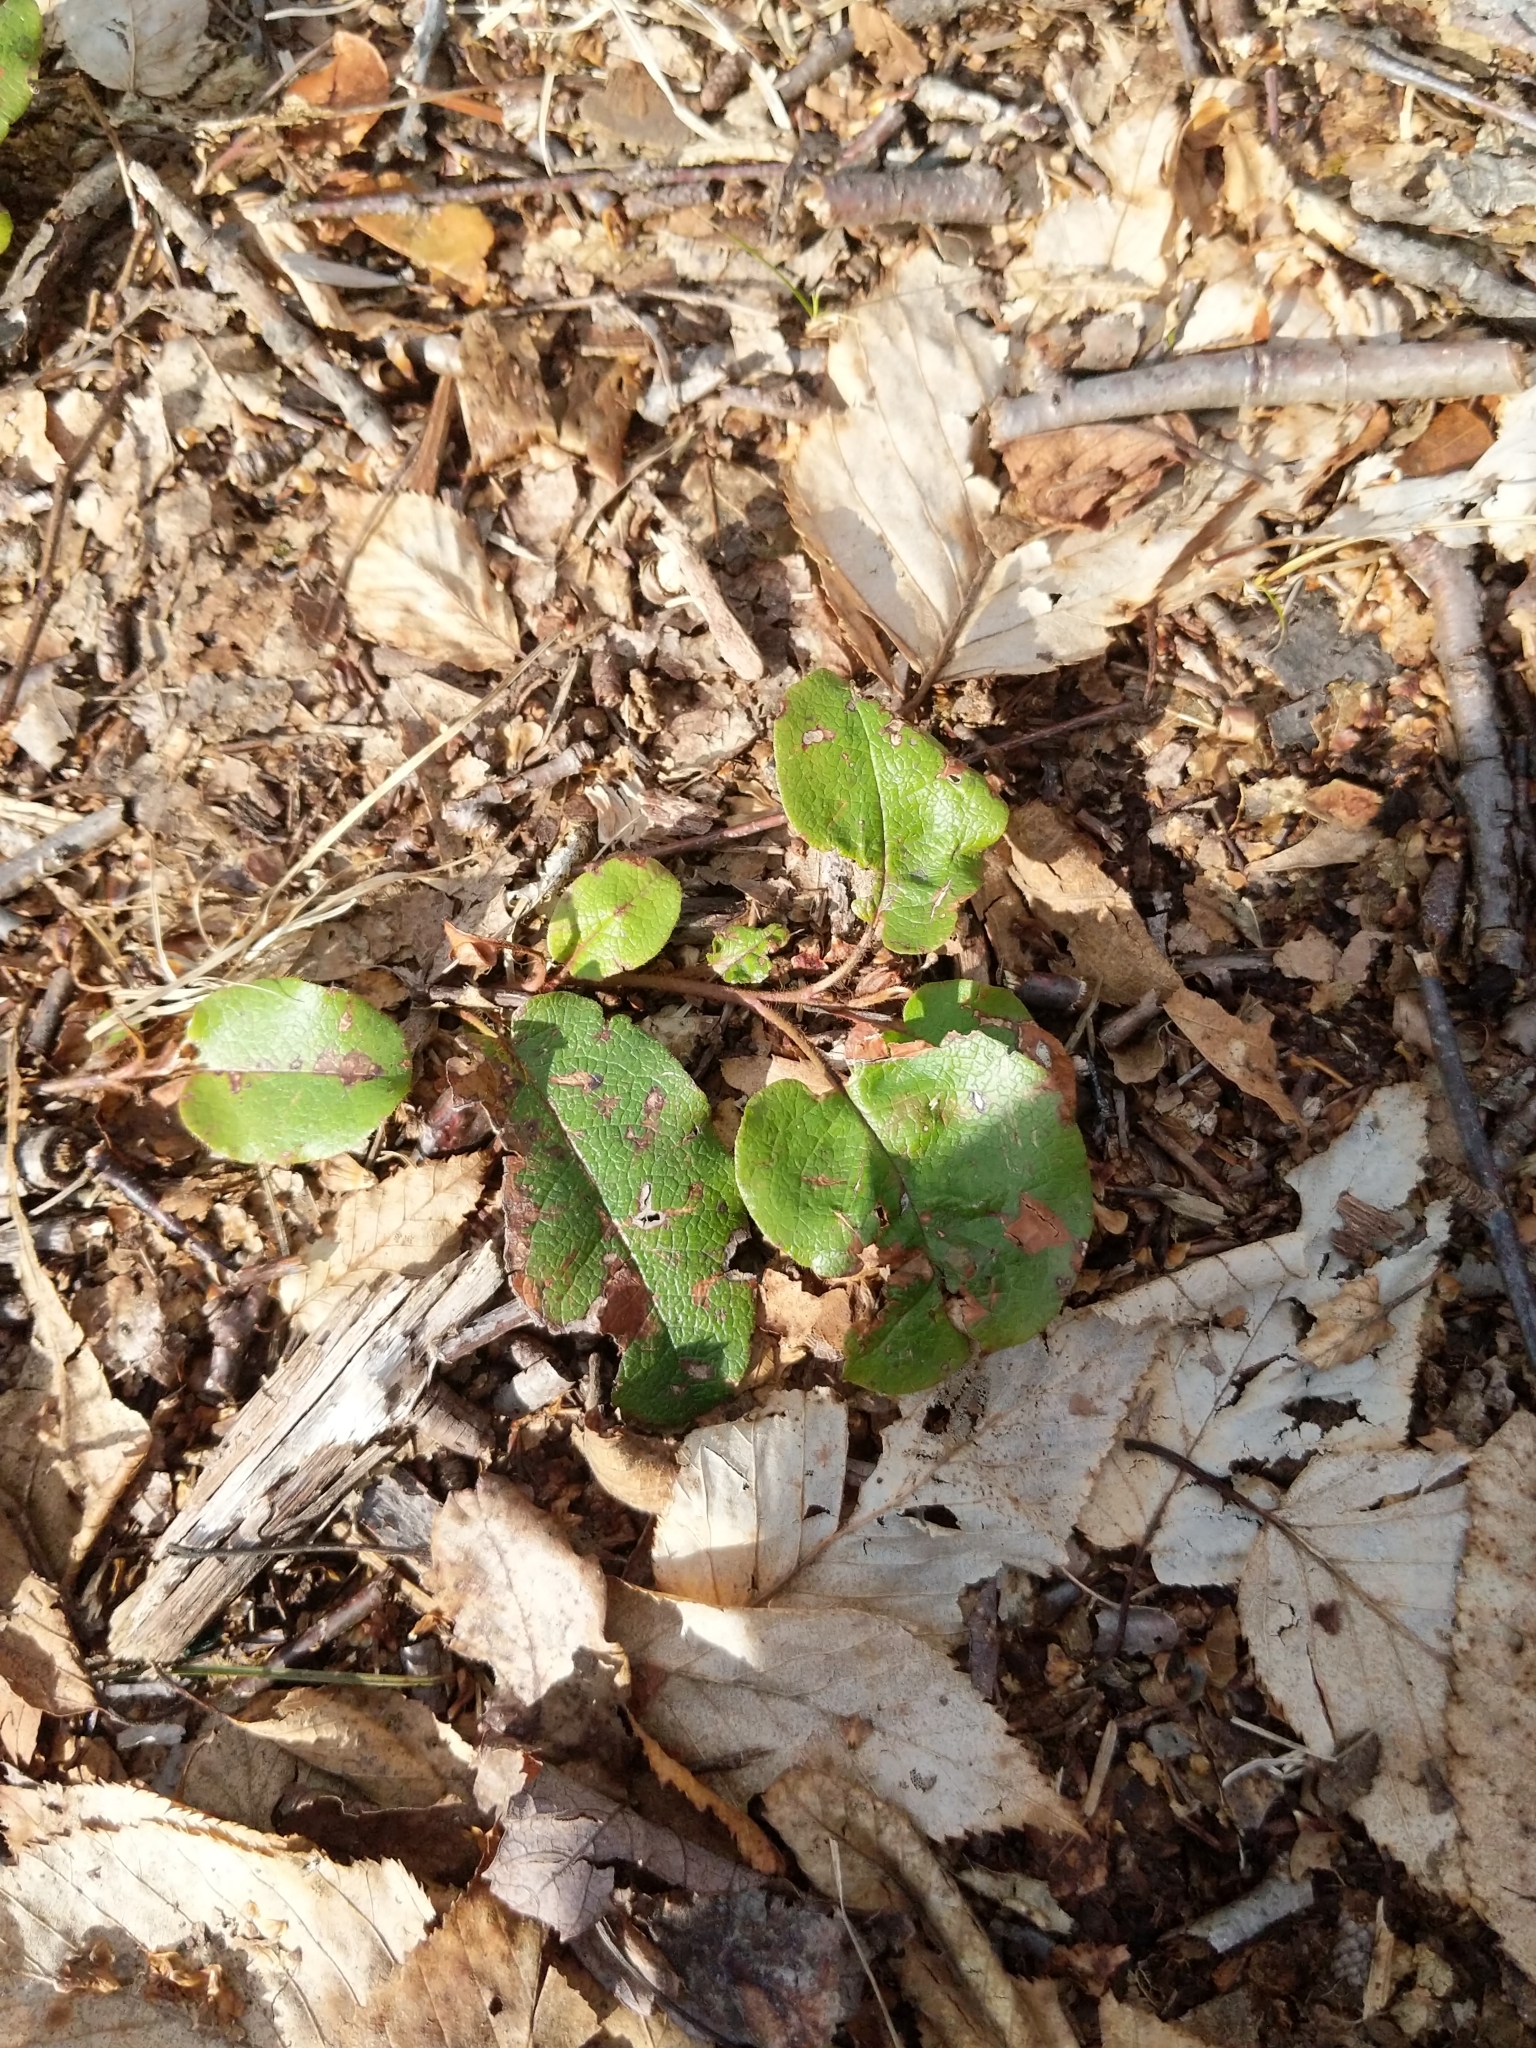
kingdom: Plantae
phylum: Tracheophyta
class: Magnoliopsida
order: Ericales
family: Ericaceae
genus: Epigaea
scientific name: Epigaea repens
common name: Gravelroot
